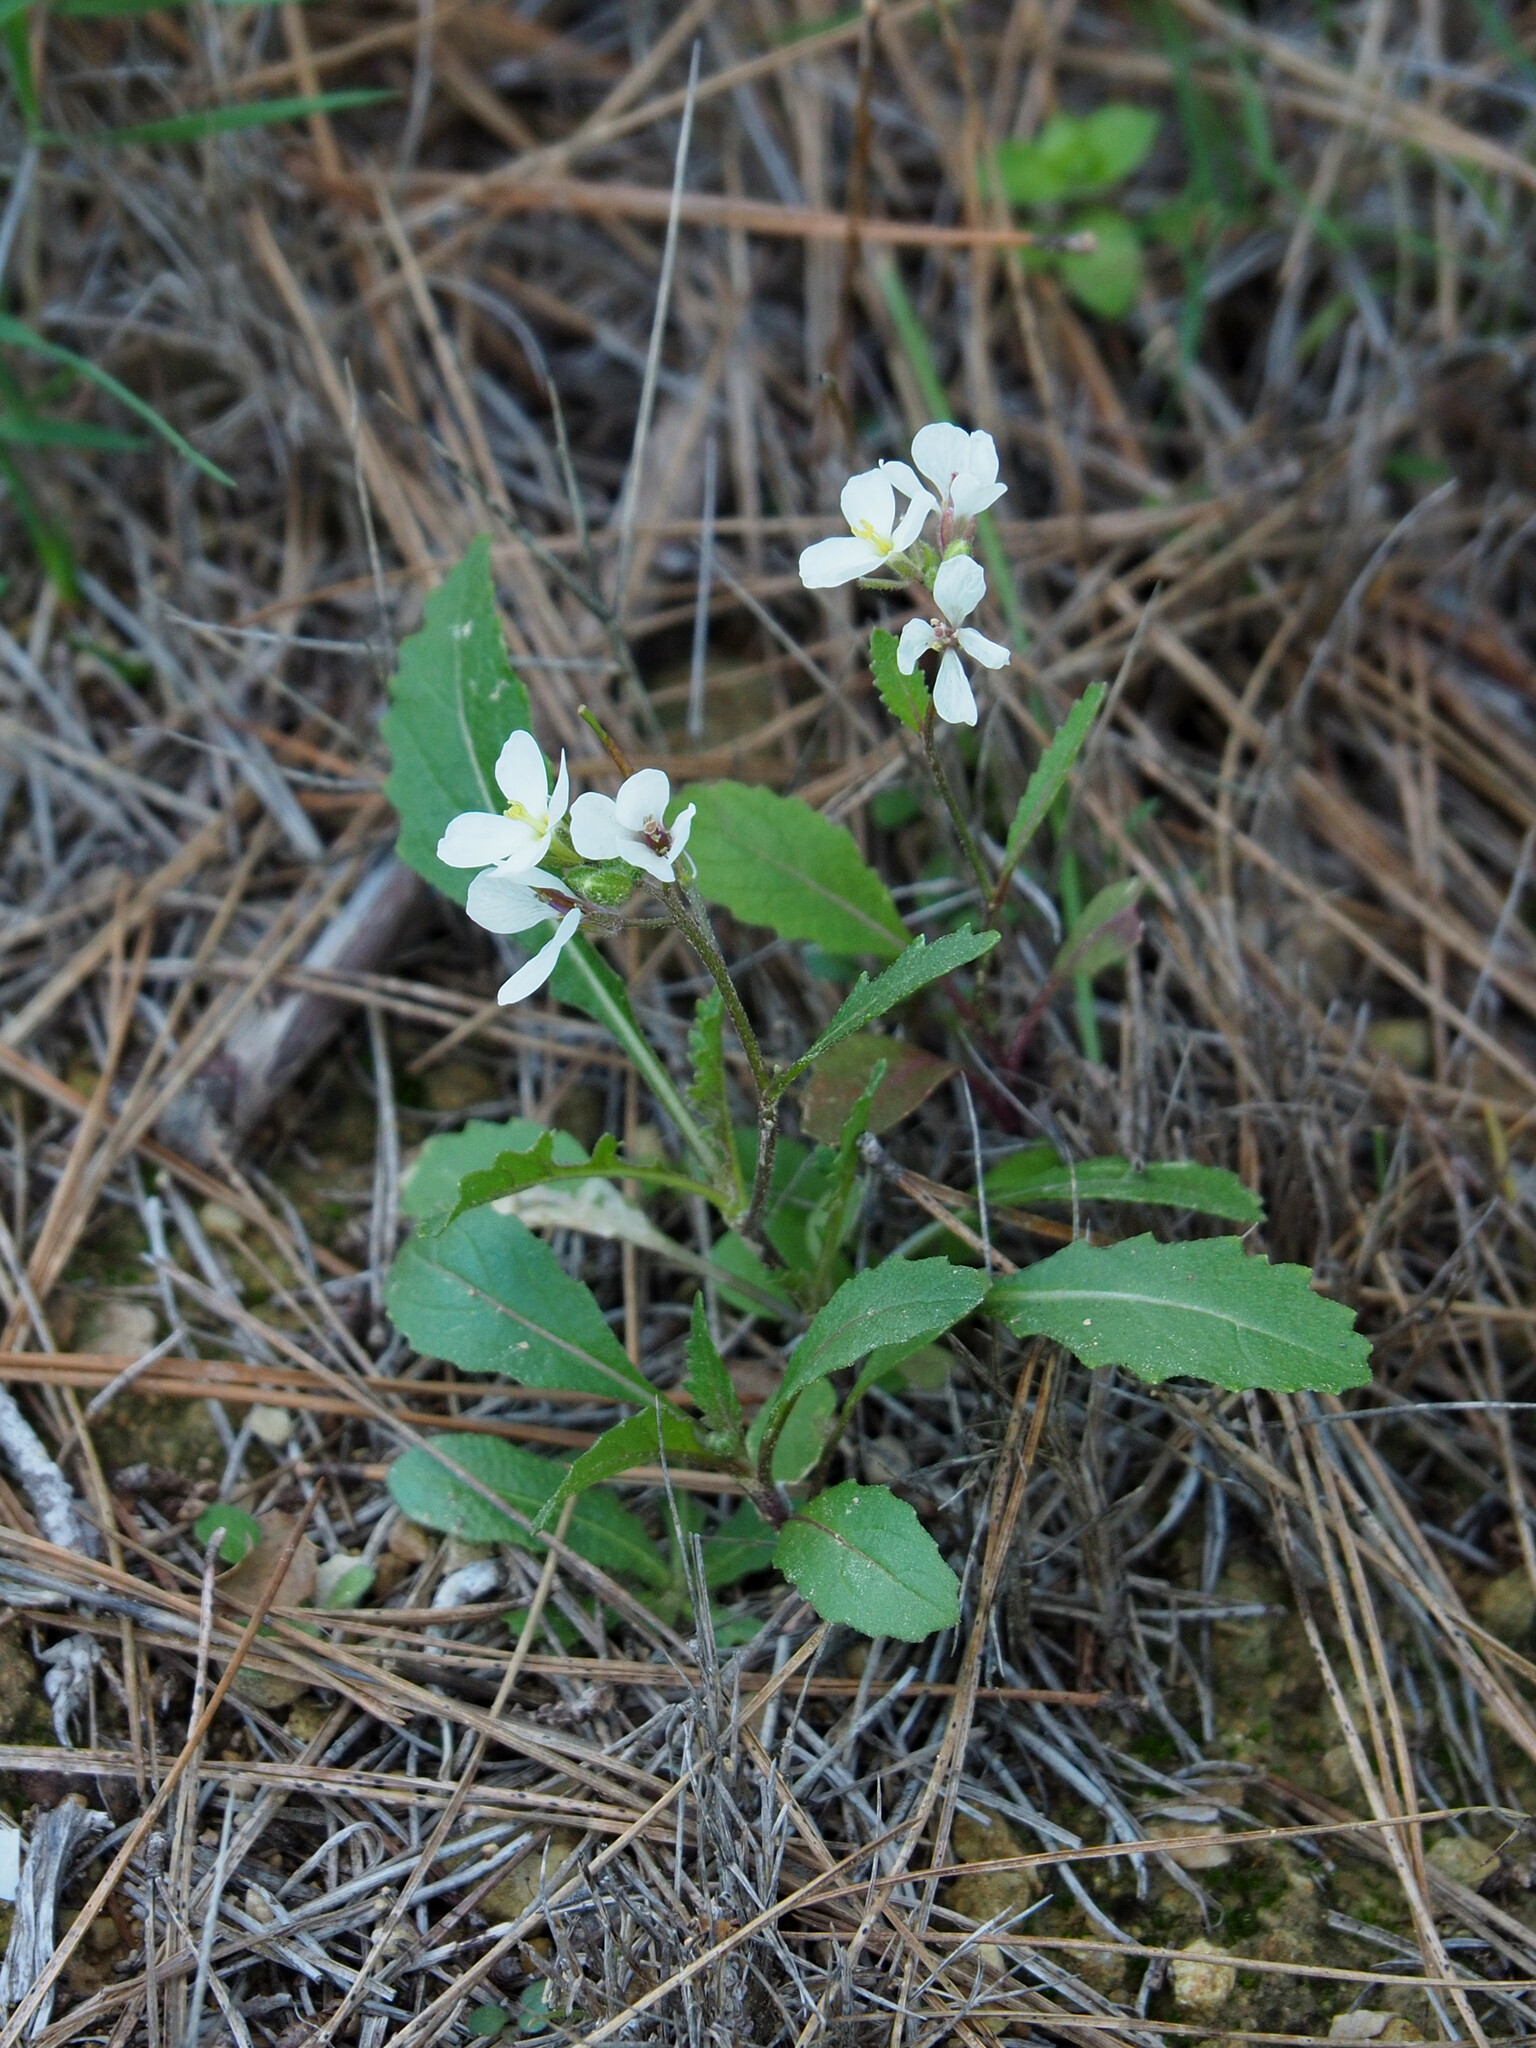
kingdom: Plantae
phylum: Tracheophyta
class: Magnoliopsida
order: Brassicales
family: Brassicaceae
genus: Diplotaxis
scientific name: Diplotaxis erucoides
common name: White rocket
